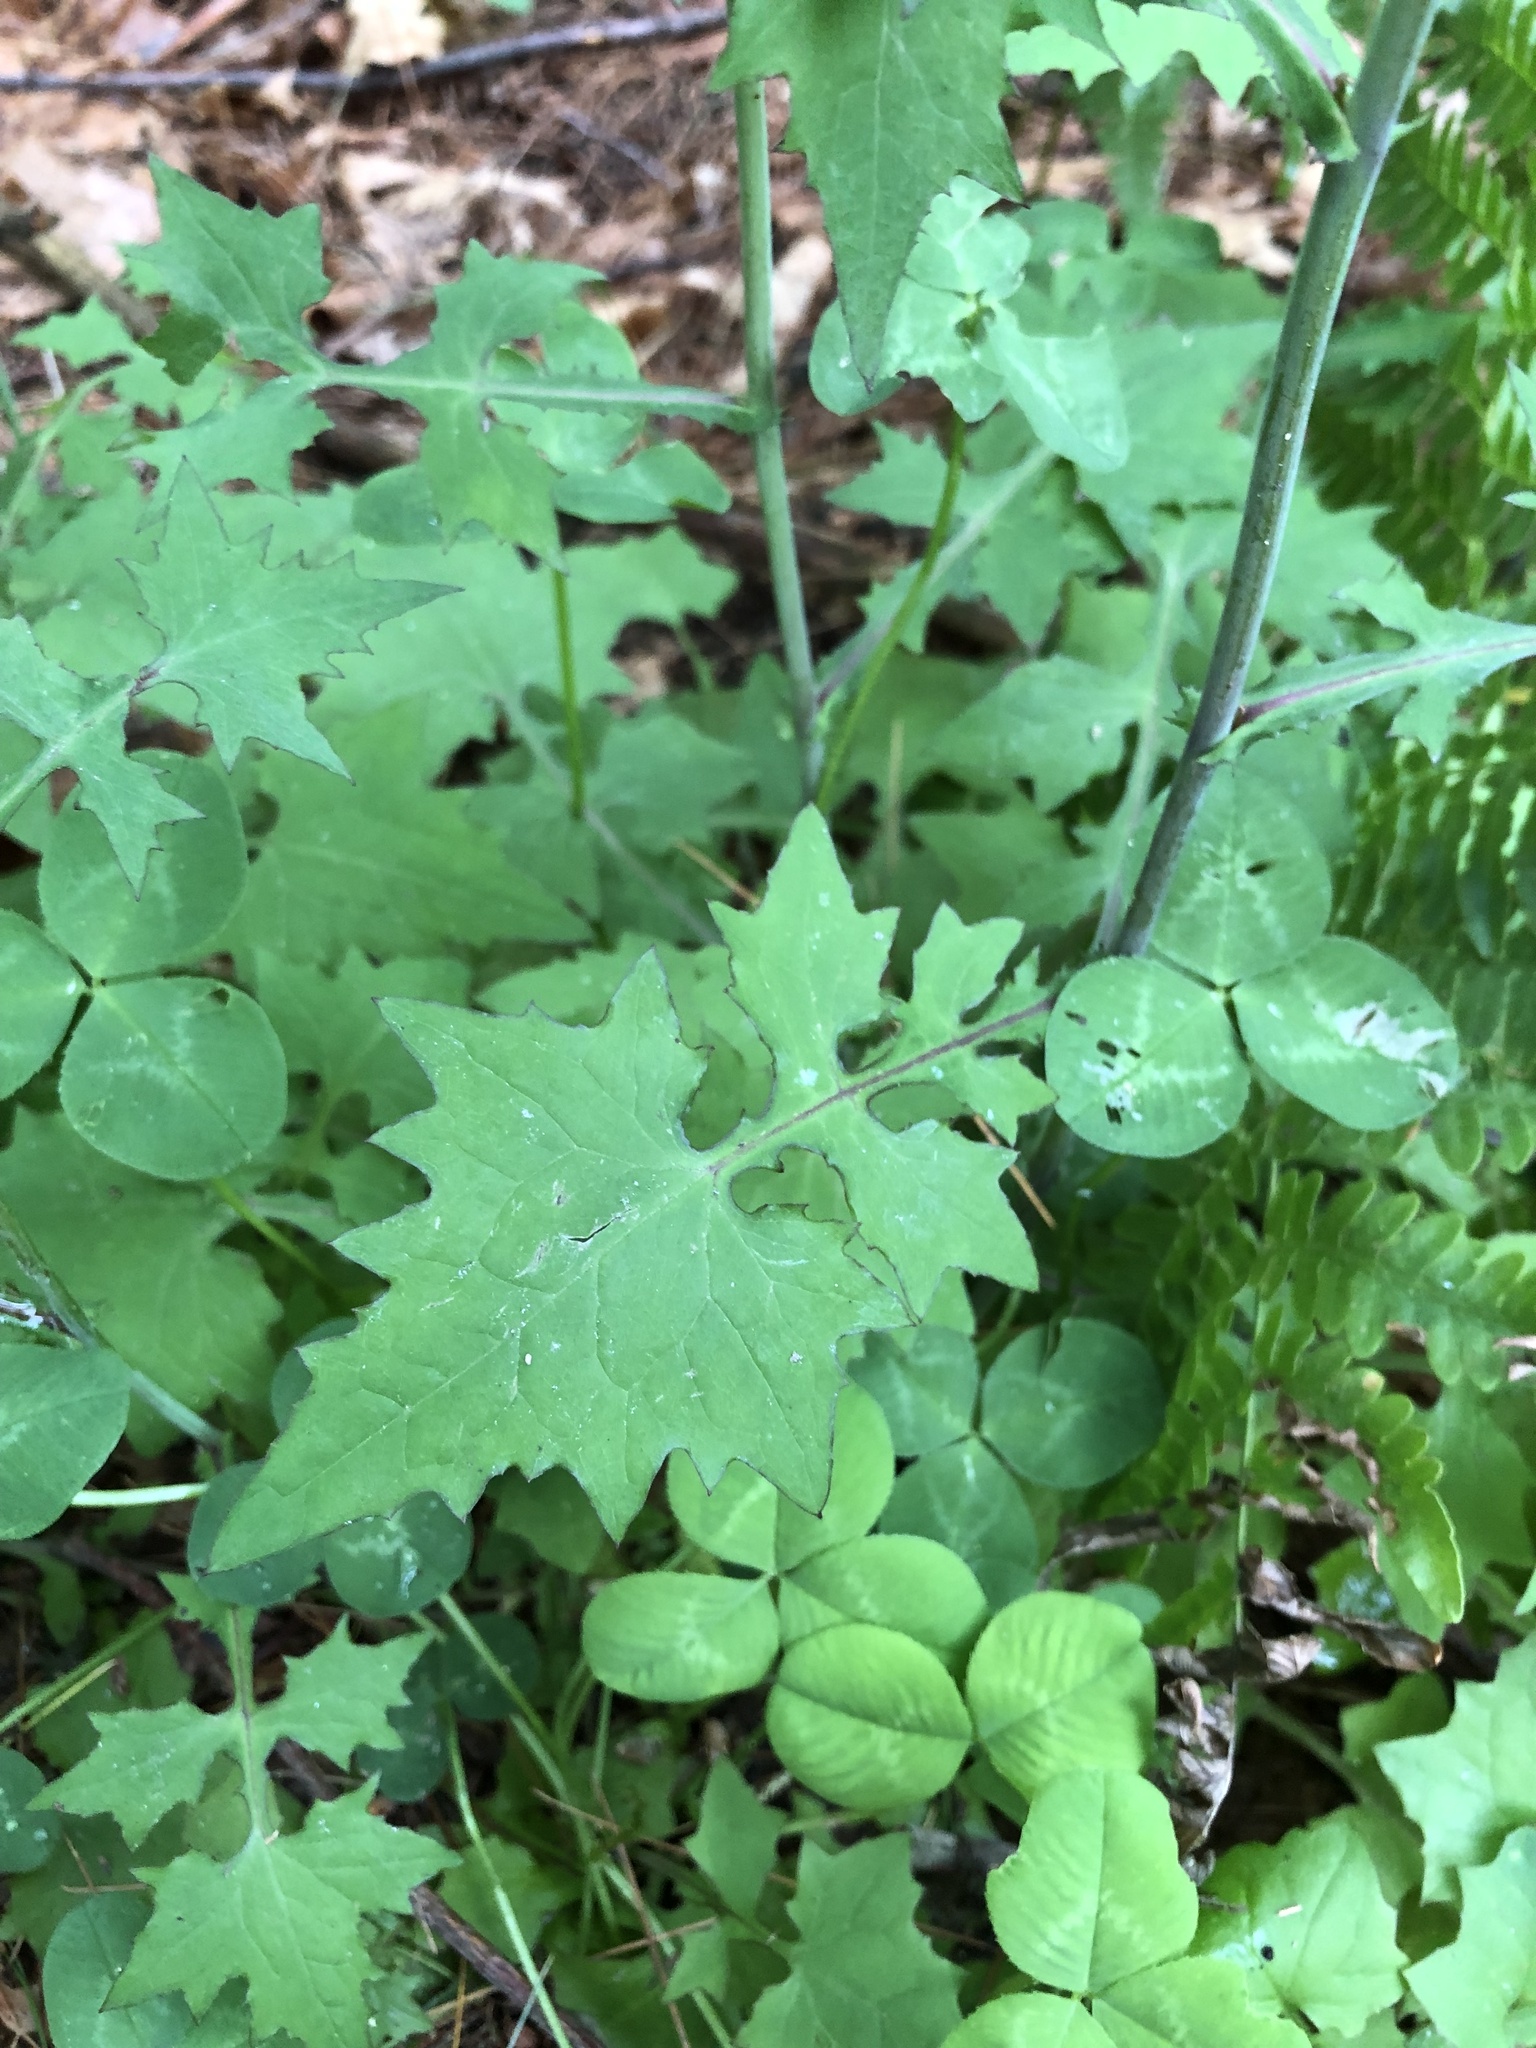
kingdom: Plantae
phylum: Tracheophyta
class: Magnoliopsida
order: Asterales
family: Asteraceae
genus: Mycelis
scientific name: Mycelis muralis
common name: Wall lettuce
